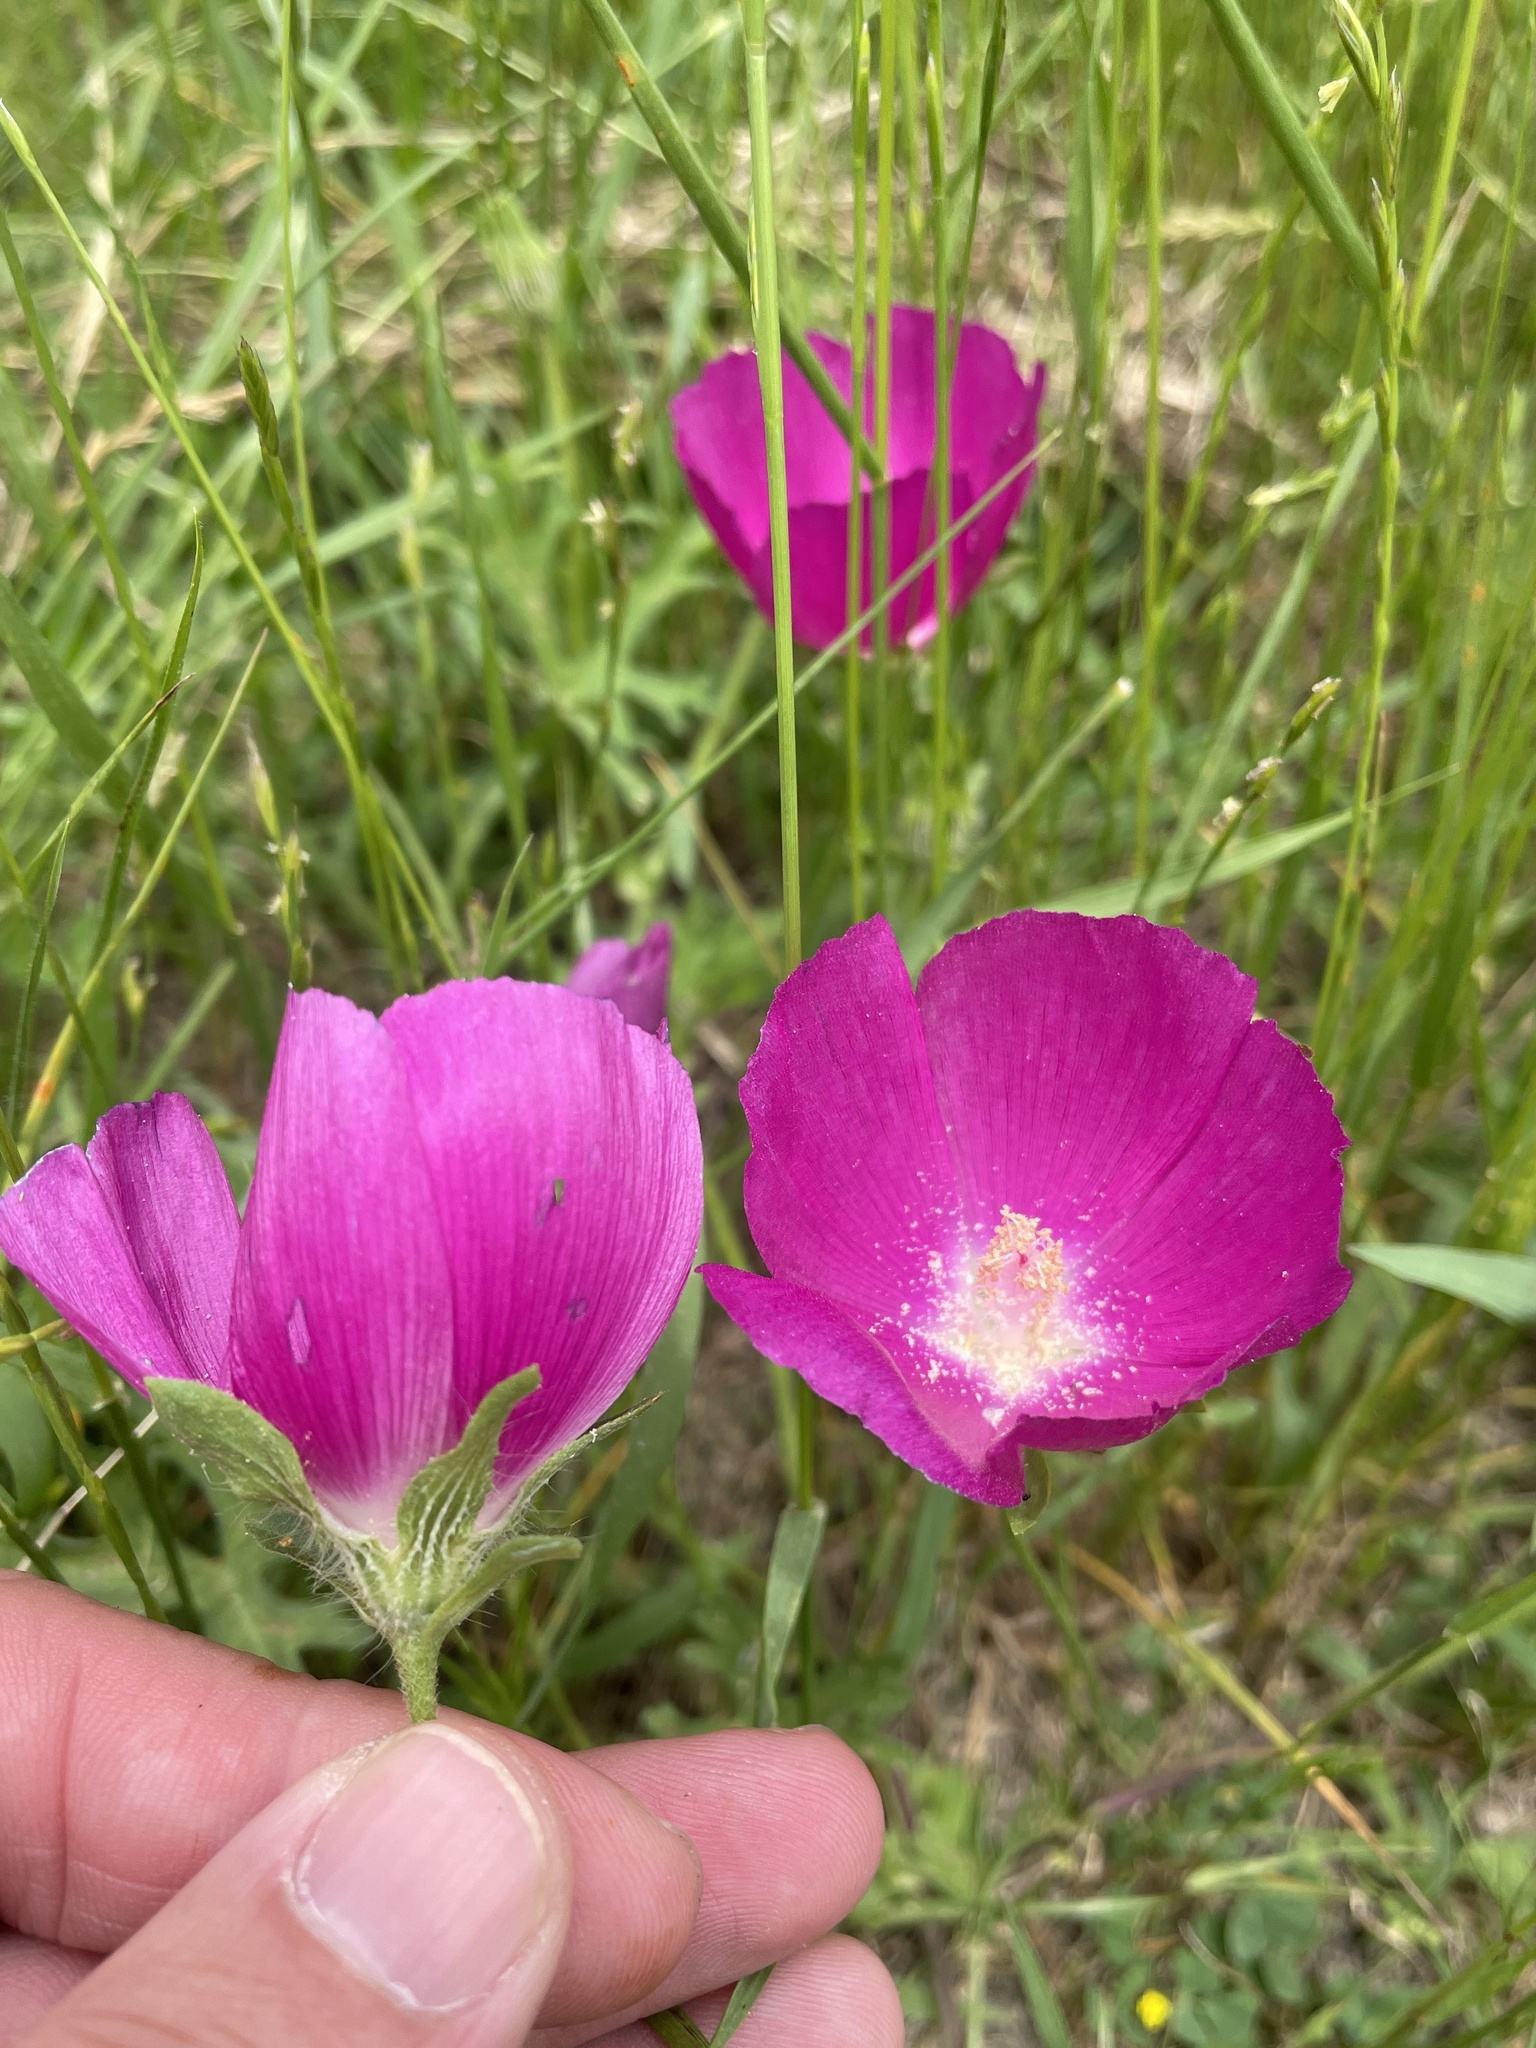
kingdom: Plantae
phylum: Tracheophyta
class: Magnoliopsida
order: Malvales
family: Malvaceae
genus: Callirhoe
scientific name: Callirhoe involucrata
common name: Purple poppy-mallow
